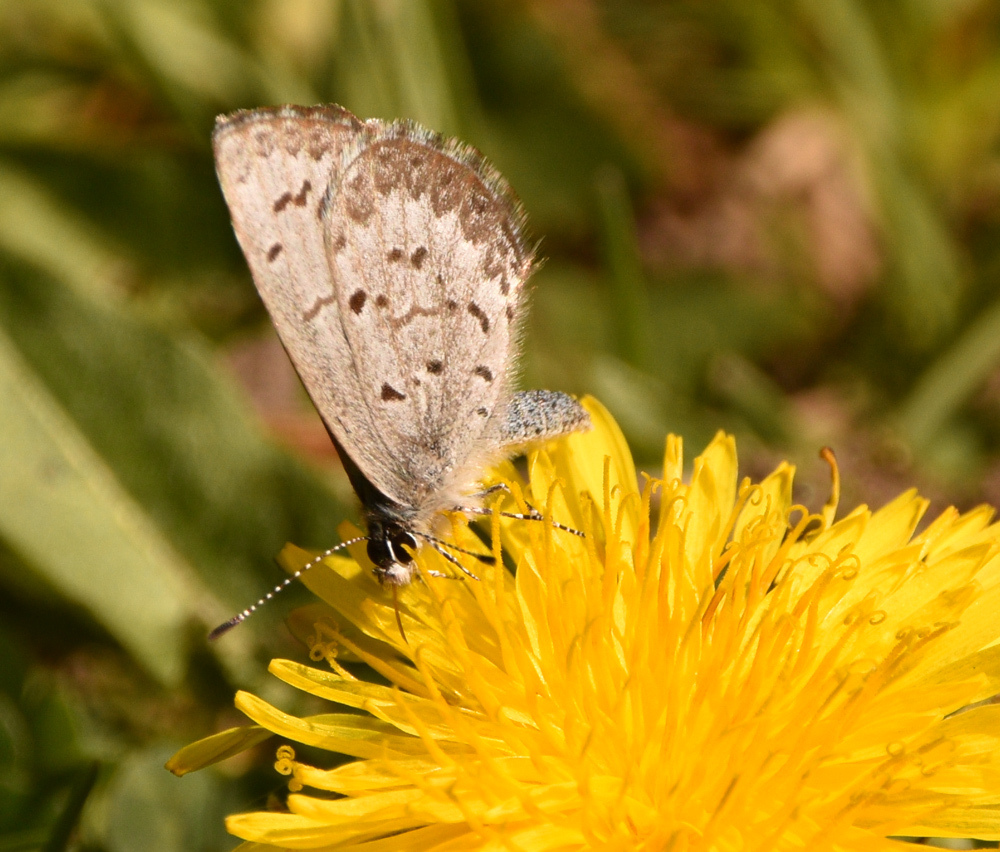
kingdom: Animalia
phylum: Arthropoda
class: Insecta
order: Lepidoptera
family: Lycaenidae
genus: Celastrina
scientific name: Celastrina lucia
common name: Lucia azure
